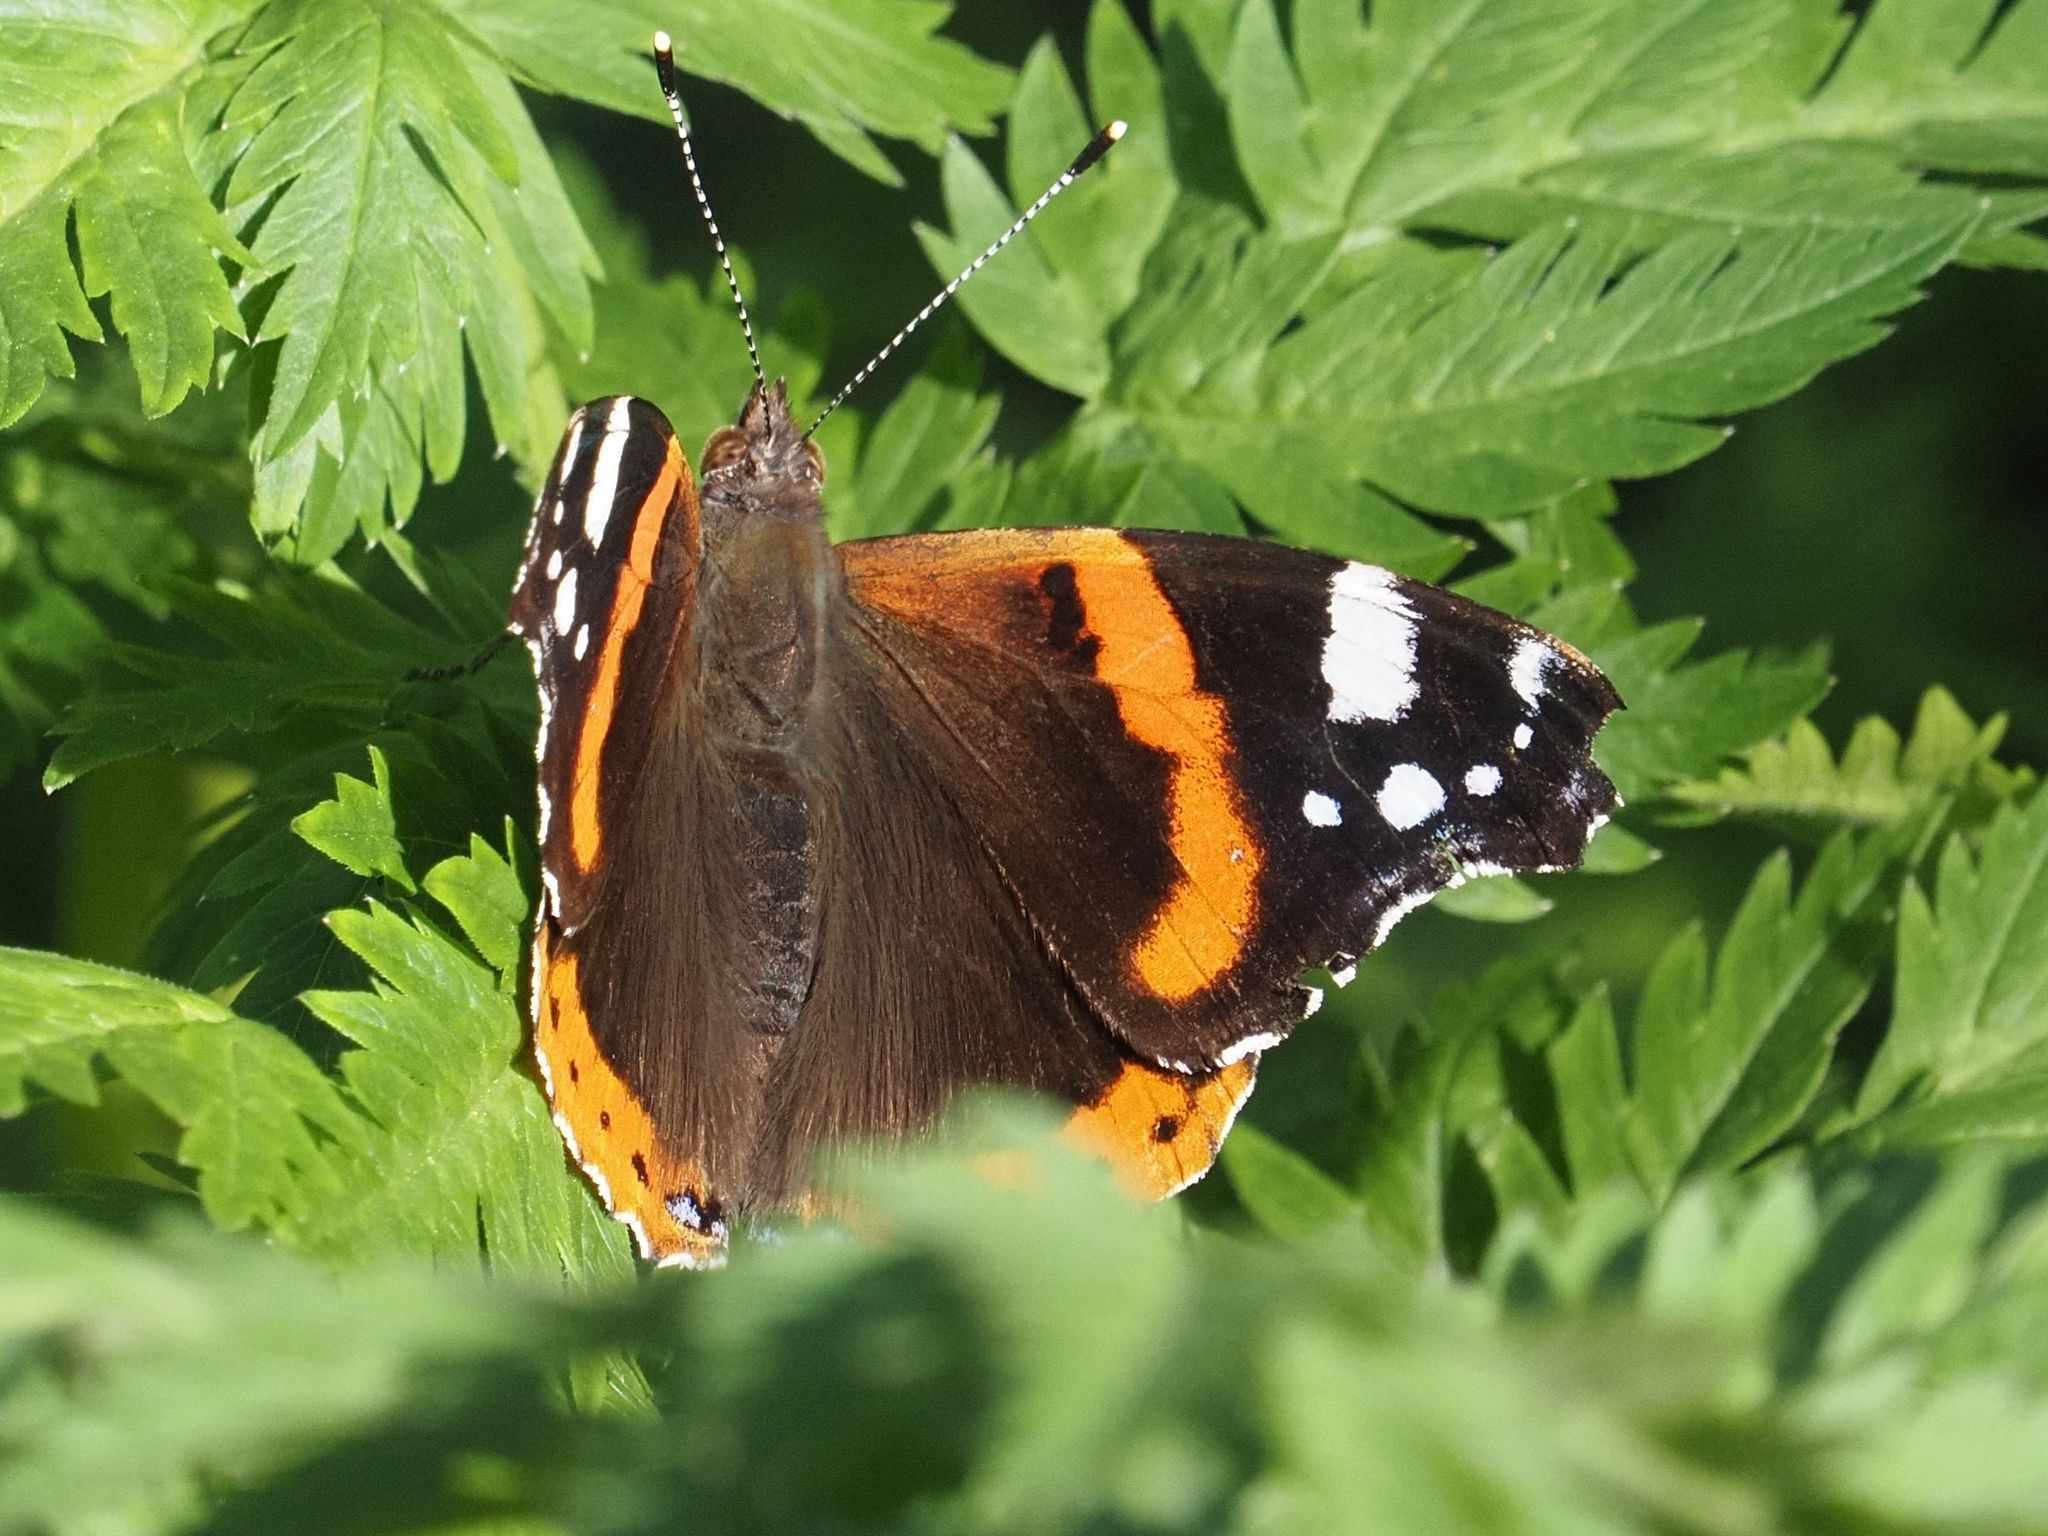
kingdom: Animalia
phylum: Arthropoda
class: Insecta
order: Lepidoptera
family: Nymphalidae
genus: Vanessa
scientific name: Vanessa atalanta
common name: Red admiral
